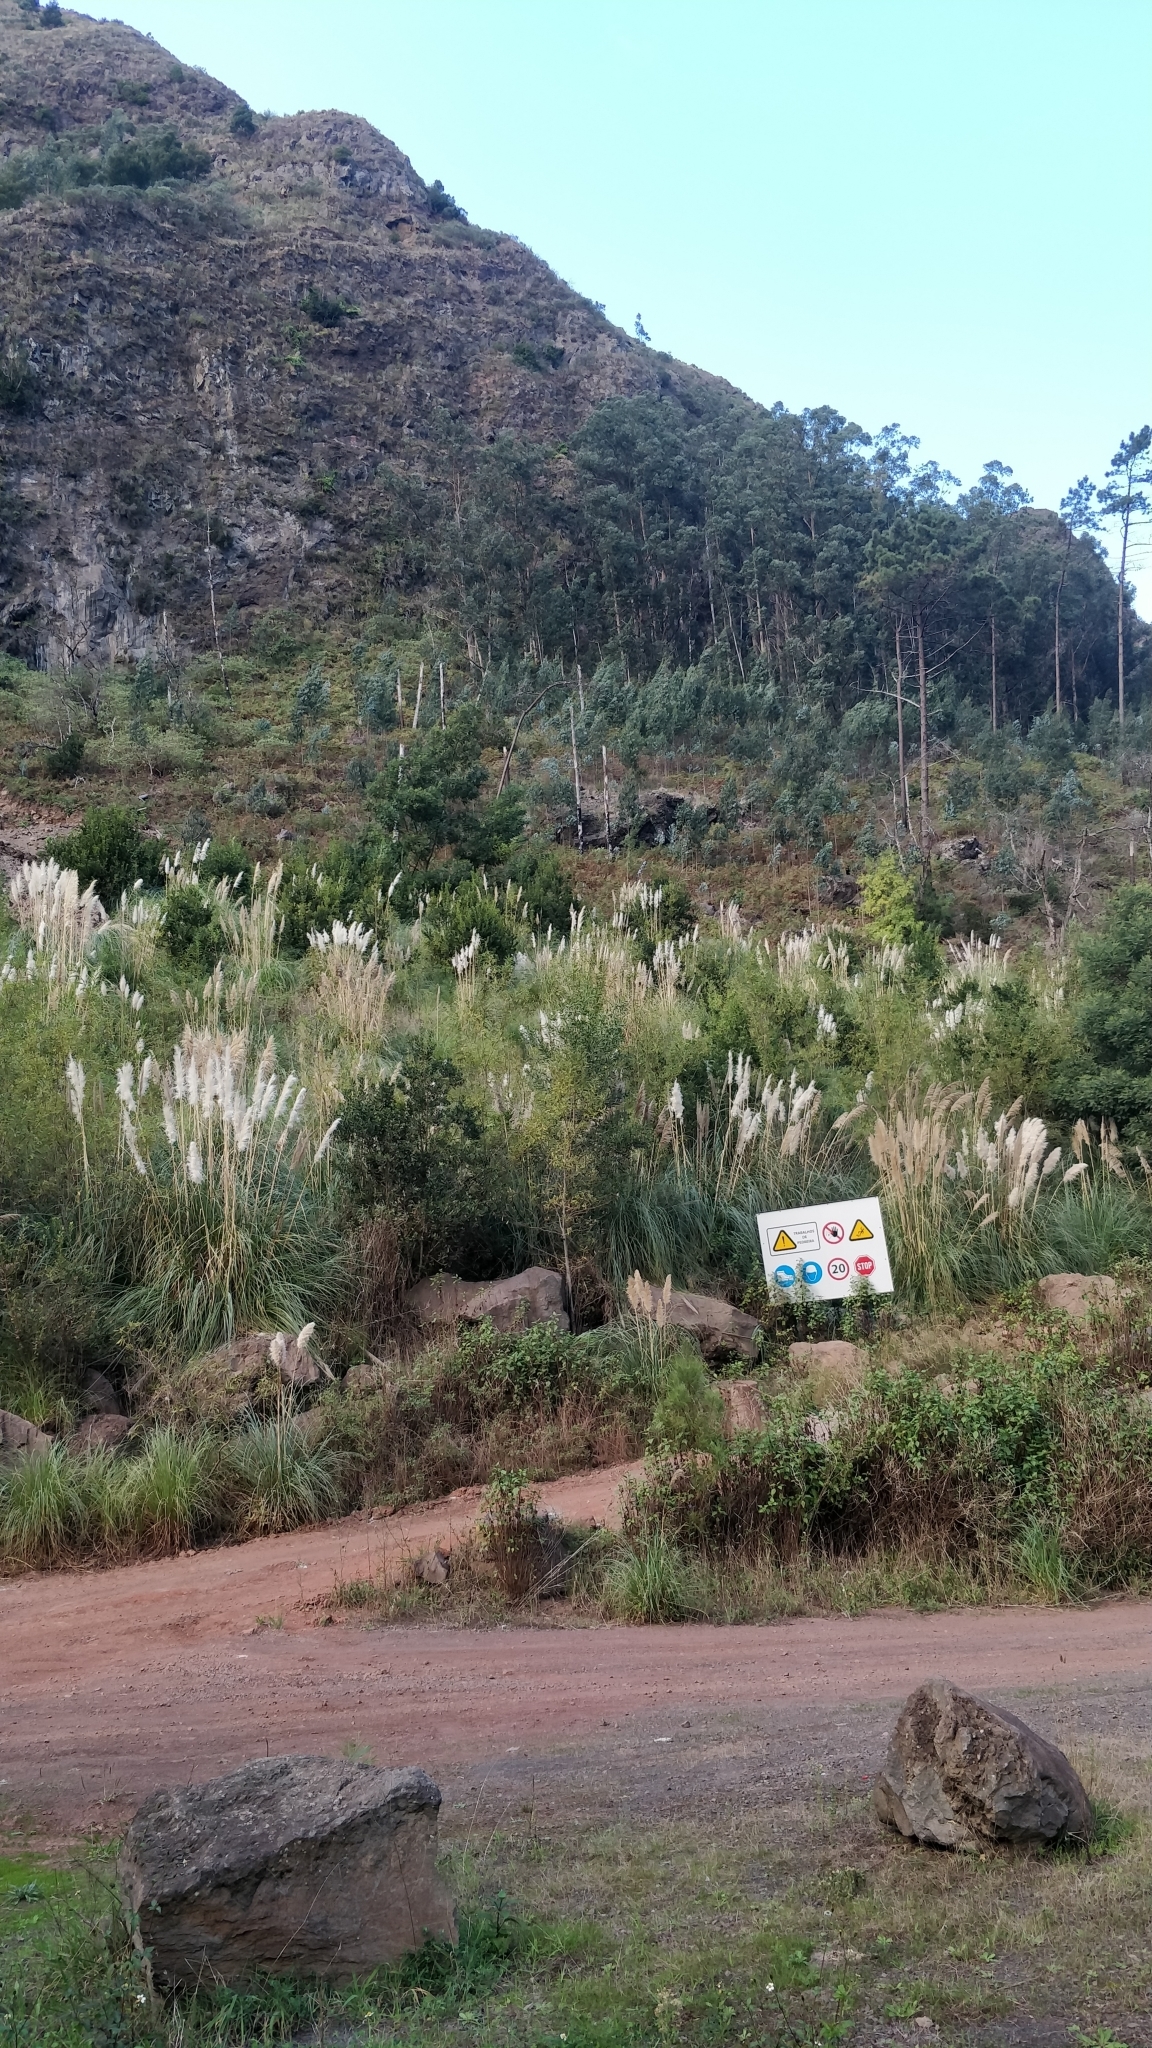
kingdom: Plantae
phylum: Tracheophyta
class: Liliopsida
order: Poales
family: Poaceae
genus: Cortaderia
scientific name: Cortaderia selloana
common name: Uruguayan pampas grass
